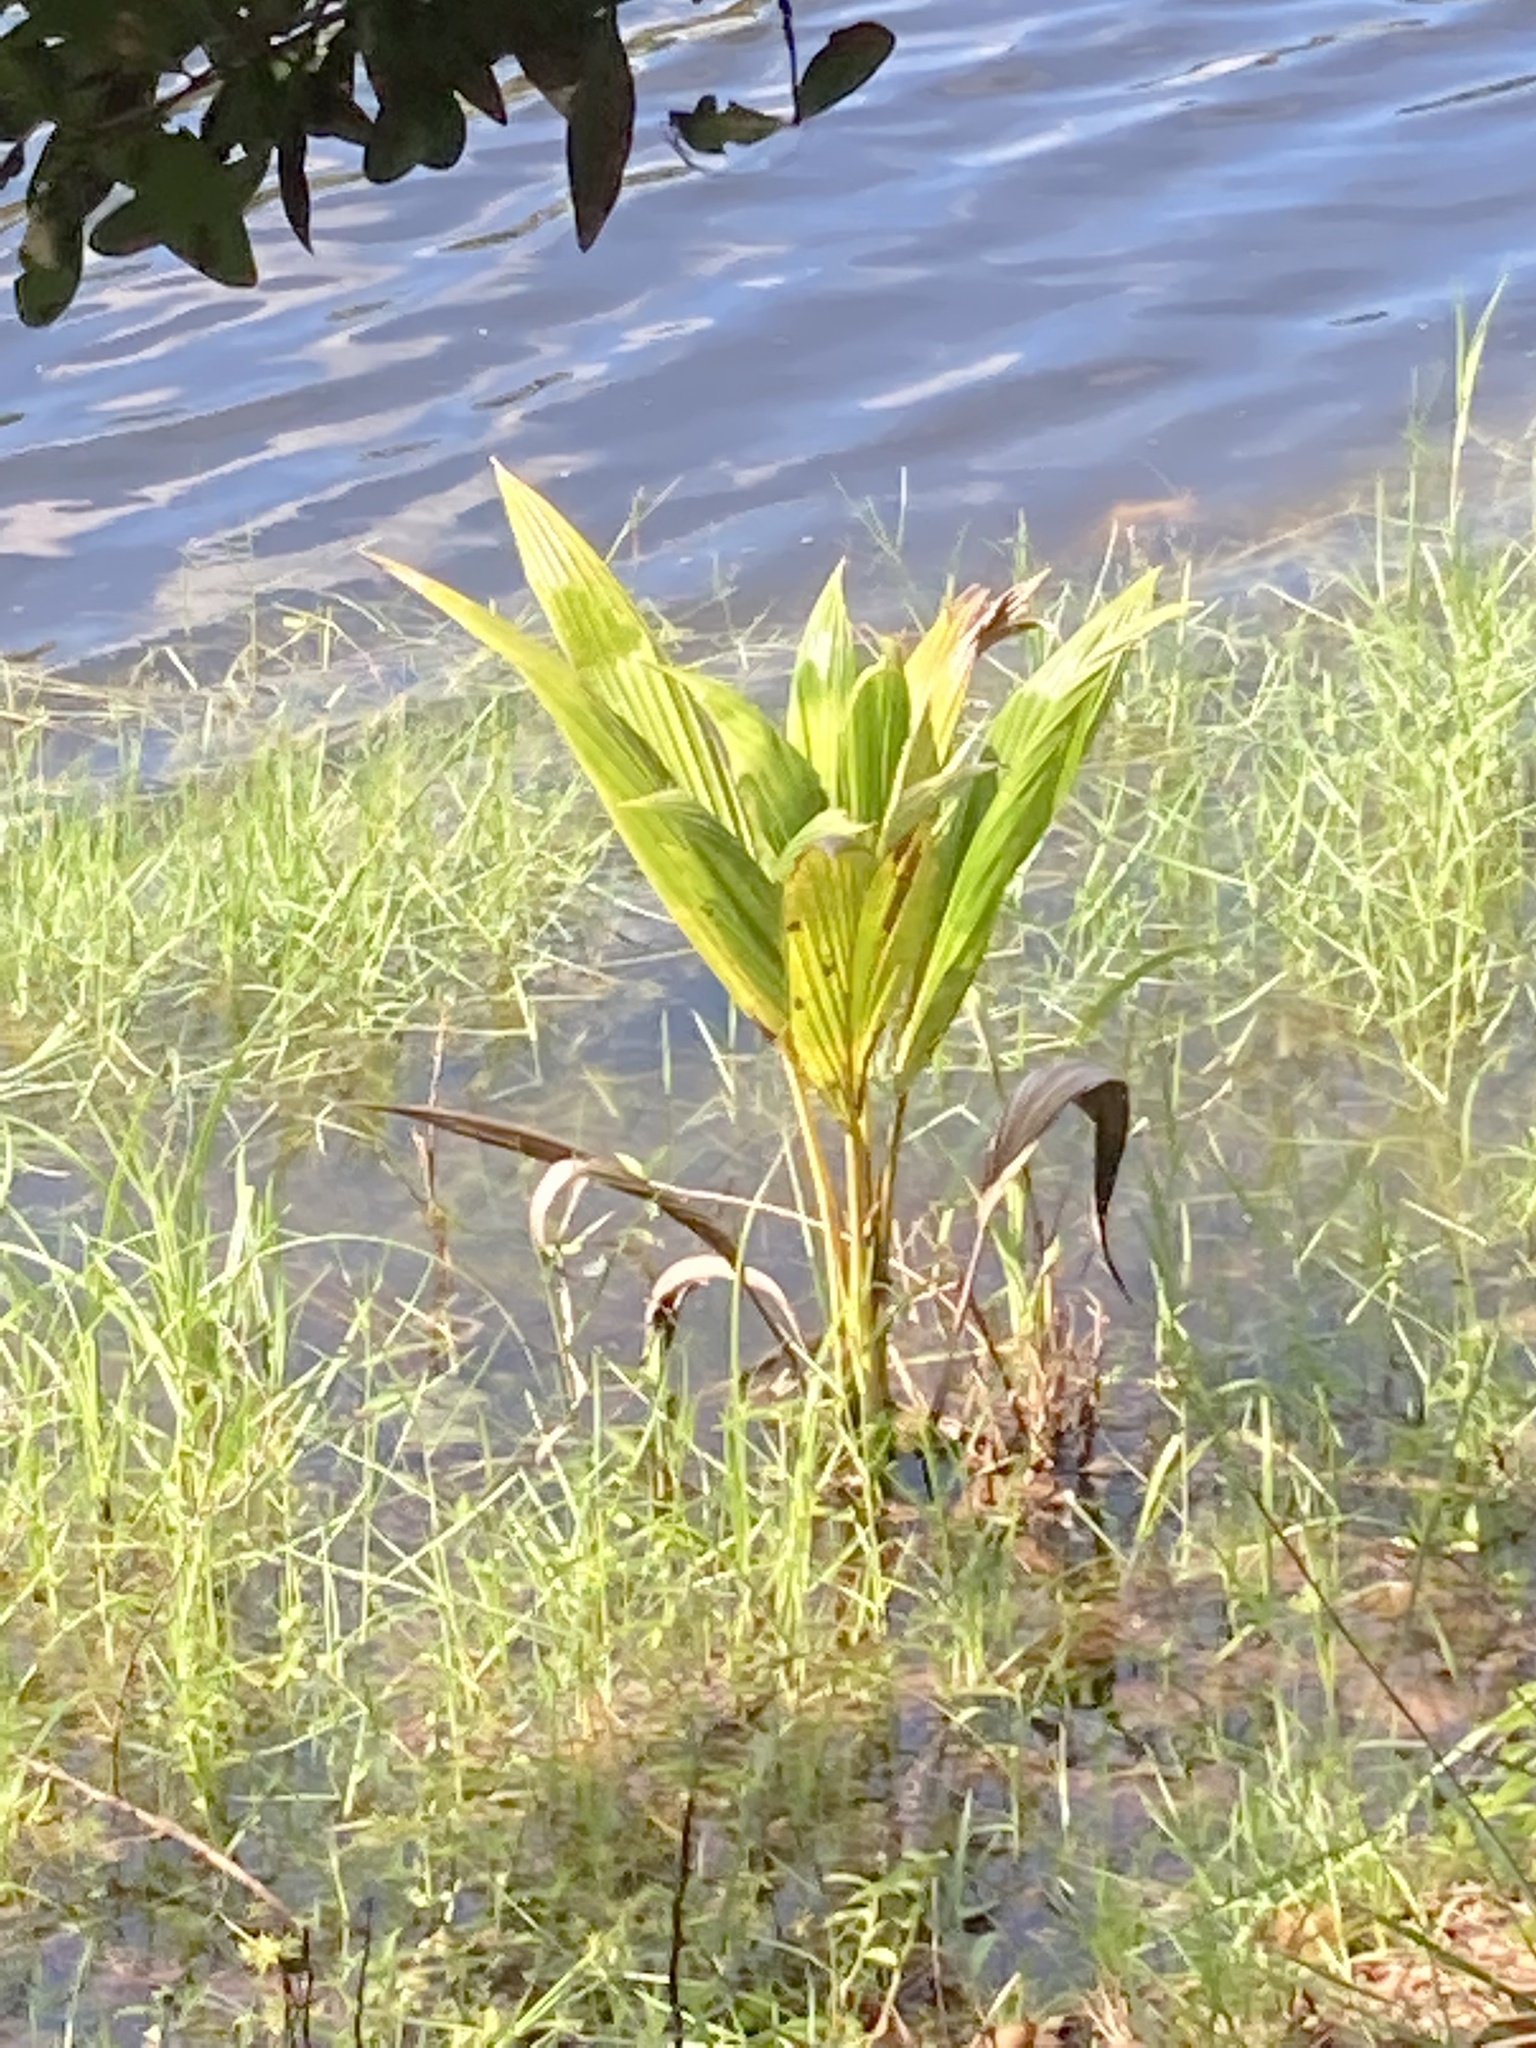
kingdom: Plantae
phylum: Tracheophyta
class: Liliopsida
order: Arecales
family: Arecaceae
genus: Cocos
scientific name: Cocos nucifera
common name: Coconut palm
